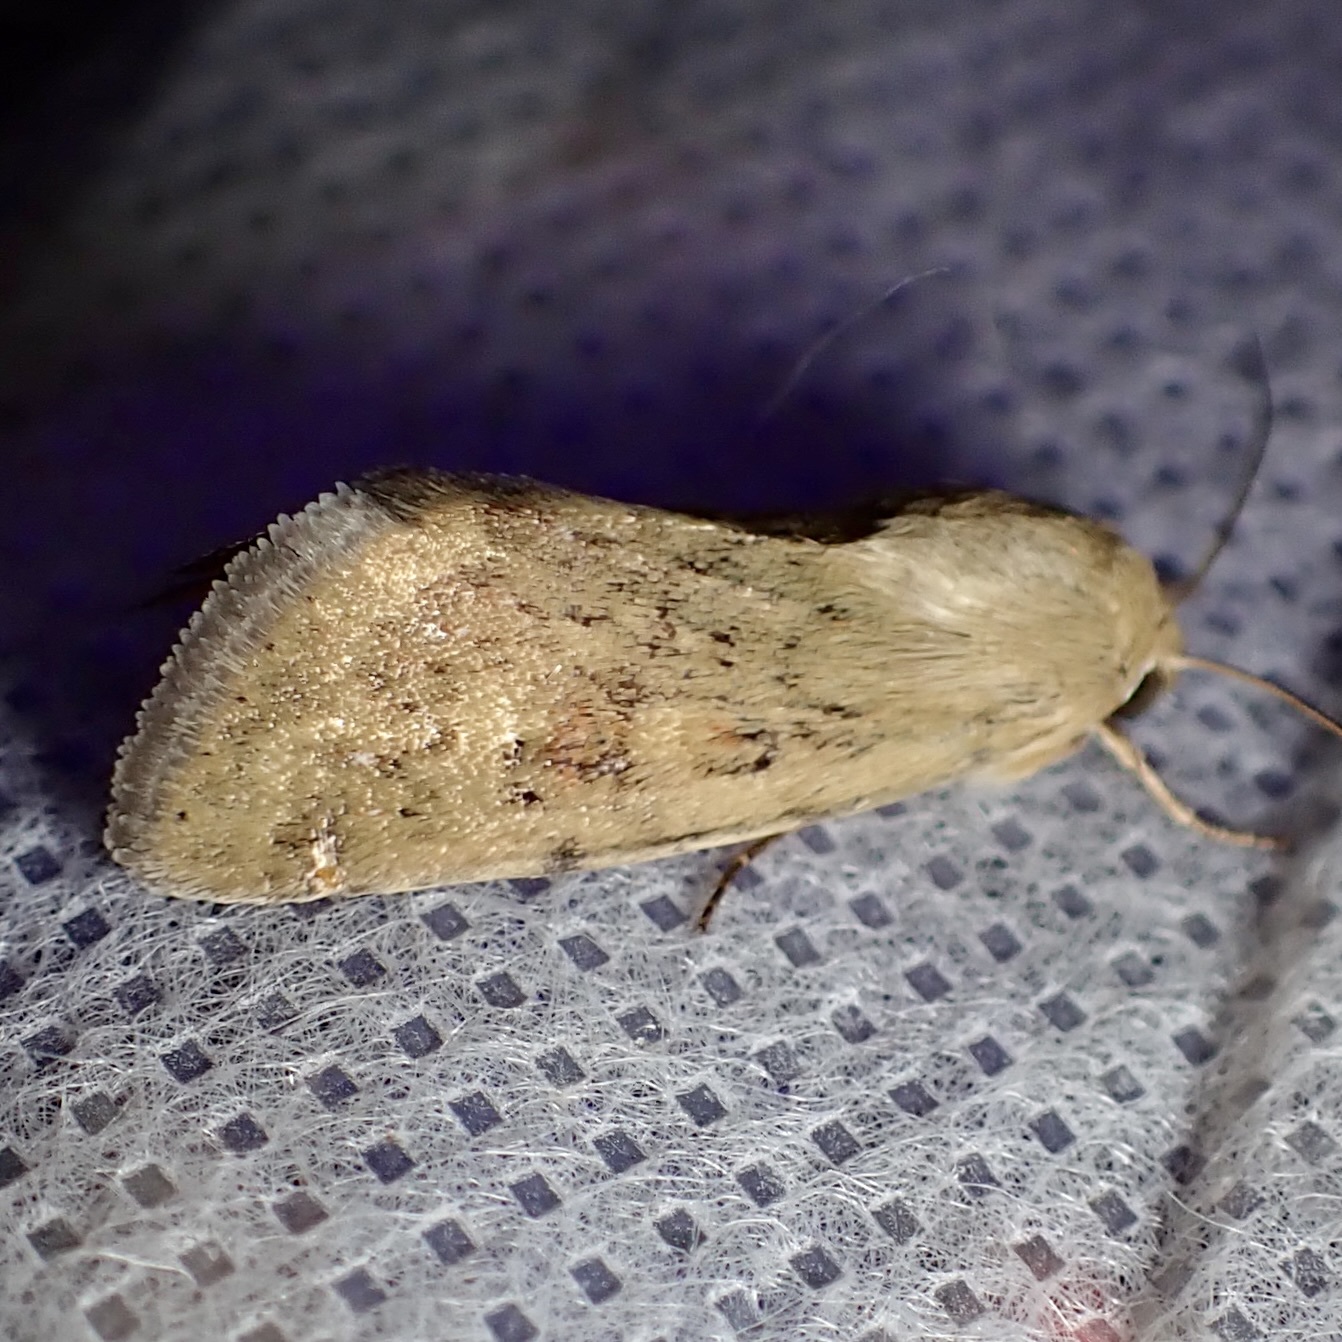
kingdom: Animalia
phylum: Arthropoda
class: Insecta
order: Lepidoptera
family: Noctuidae
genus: Helicoverpa
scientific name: Helicoverpa zea
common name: Bollworm
